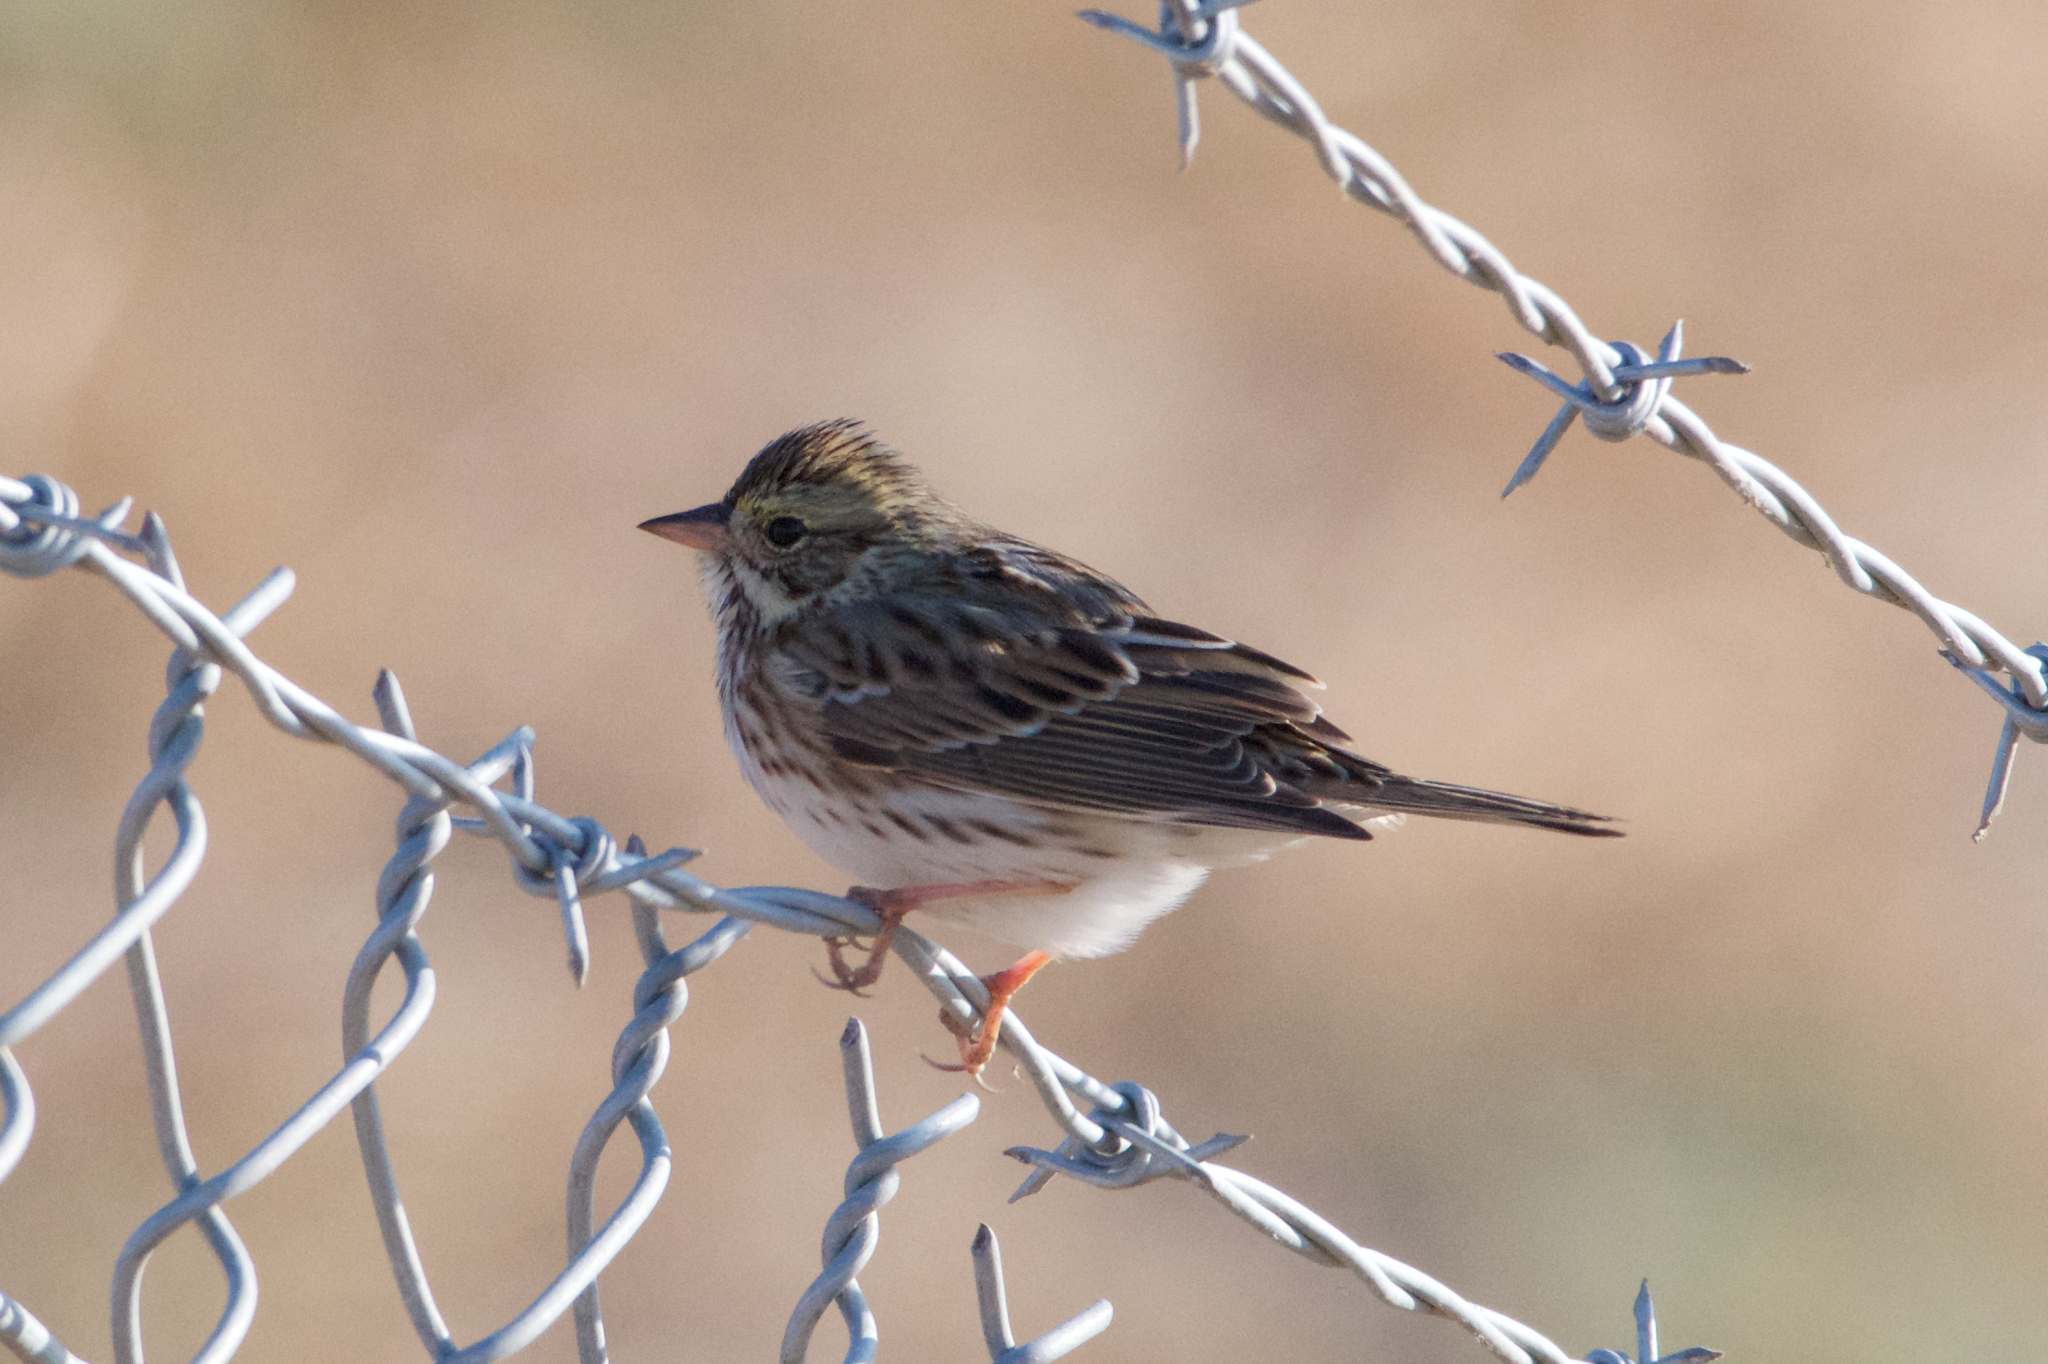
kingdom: Animalia
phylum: Chordata
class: Aves
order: Passeriformes
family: Passerellidae
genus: Passerculus
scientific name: Passerculus sandwichensis
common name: Savannah sparrow
